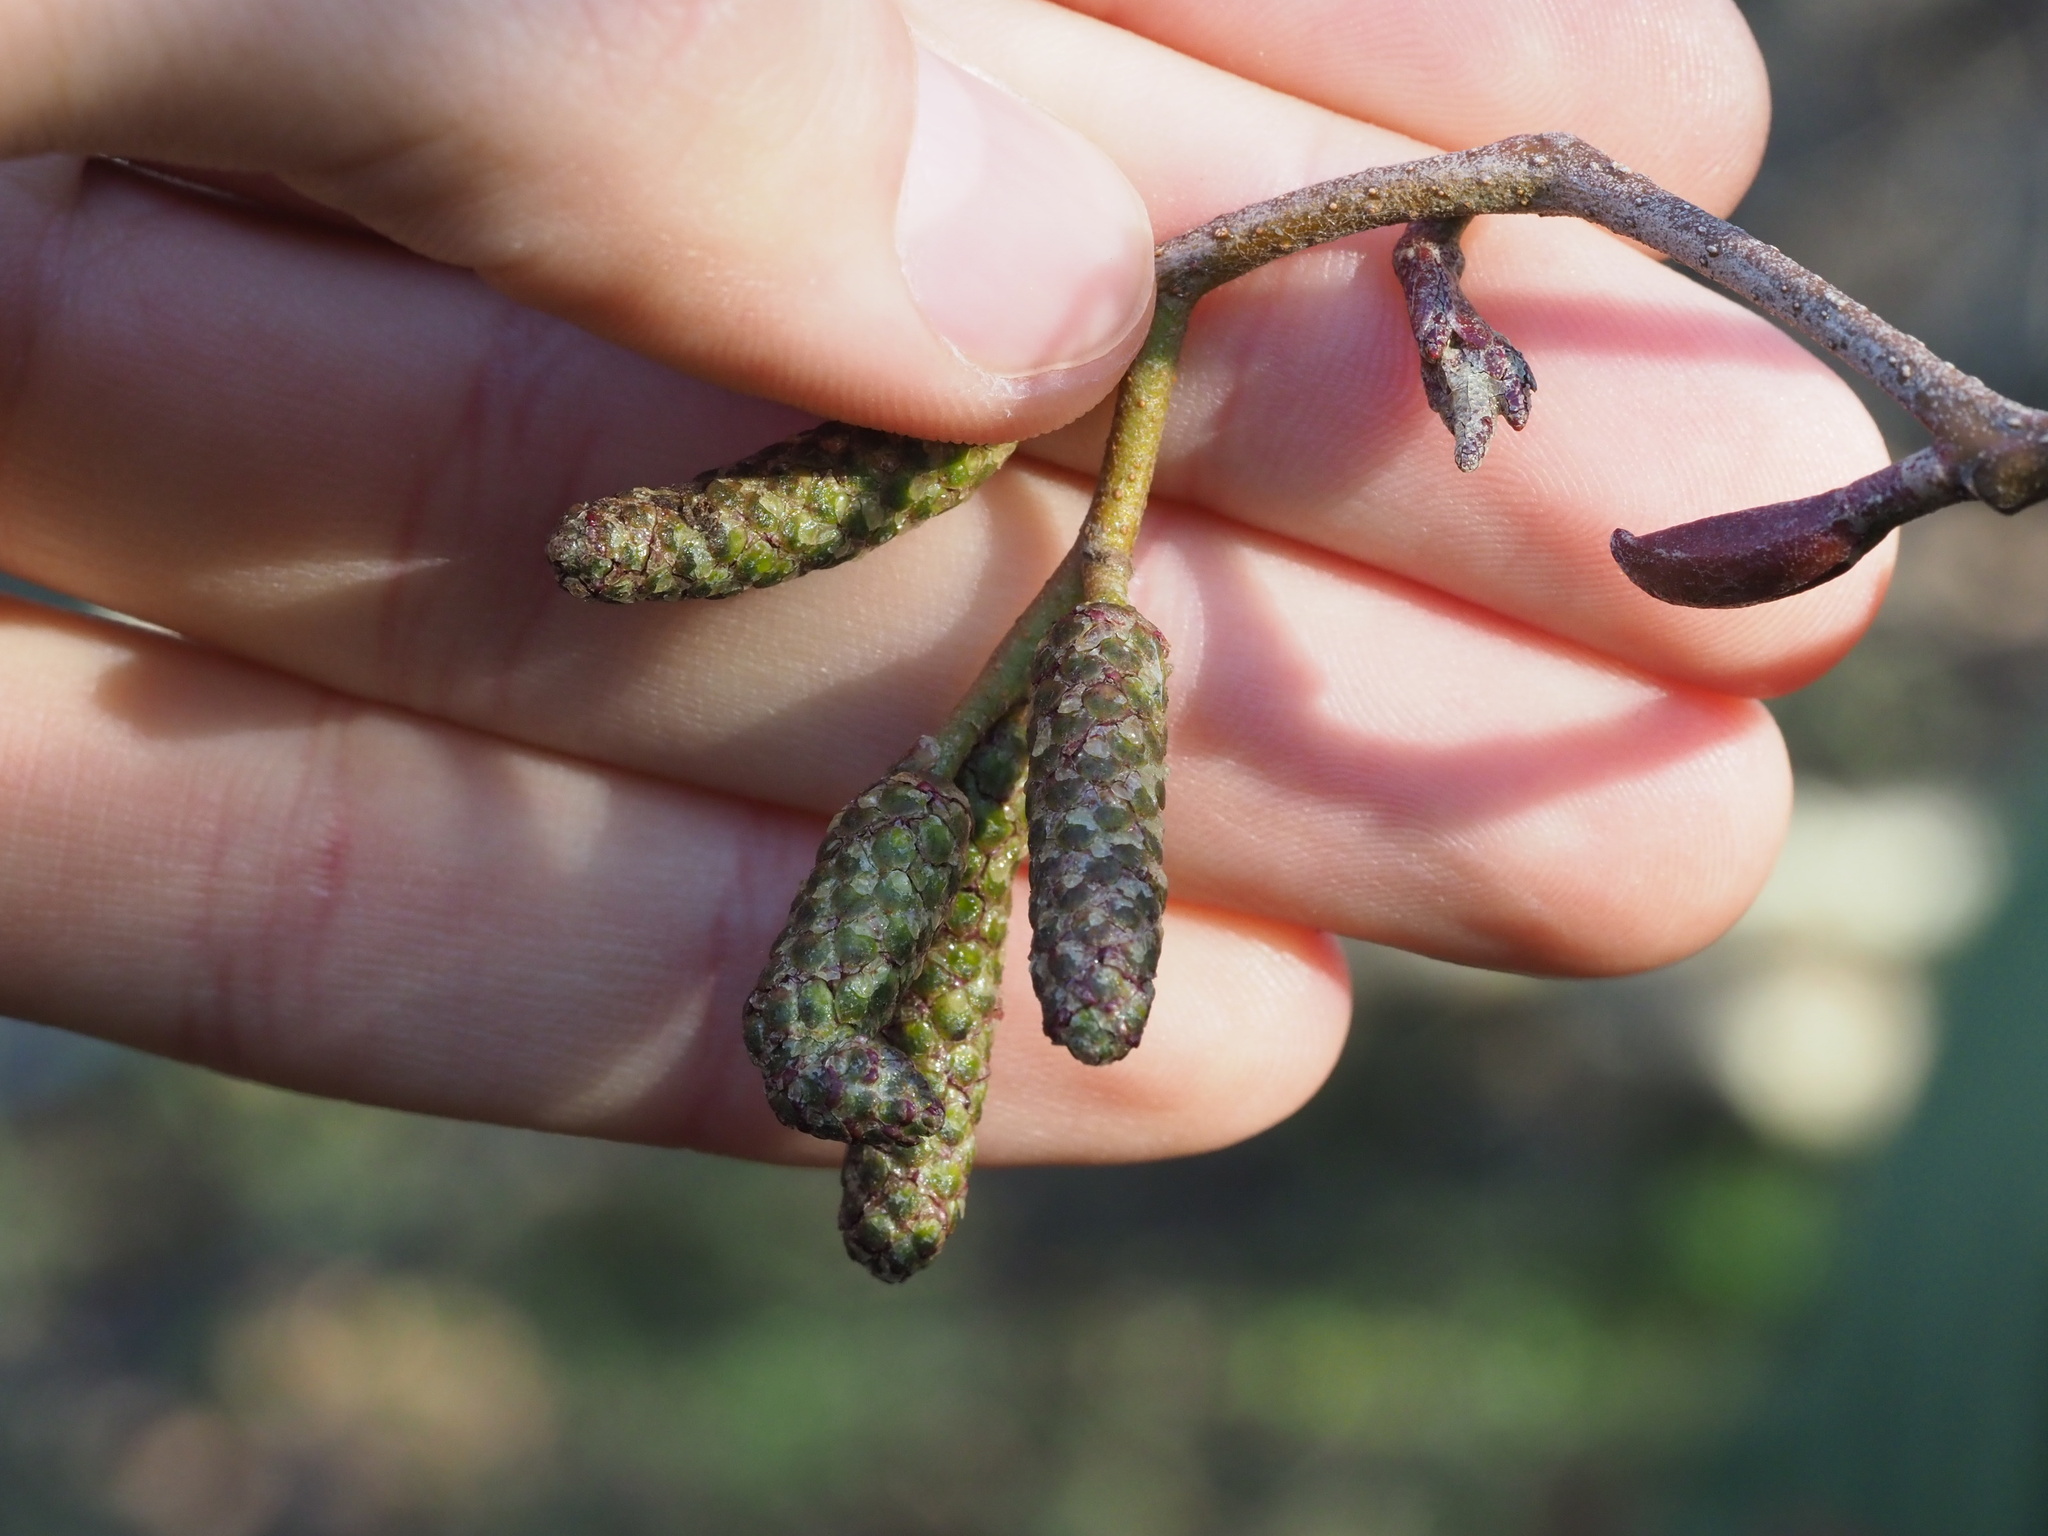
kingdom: Plantae
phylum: Tracheophyta
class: Magnoliopsida
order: Fagales
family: Betulaceae
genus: Alnus
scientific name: Alnus rubra
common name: Red alder
